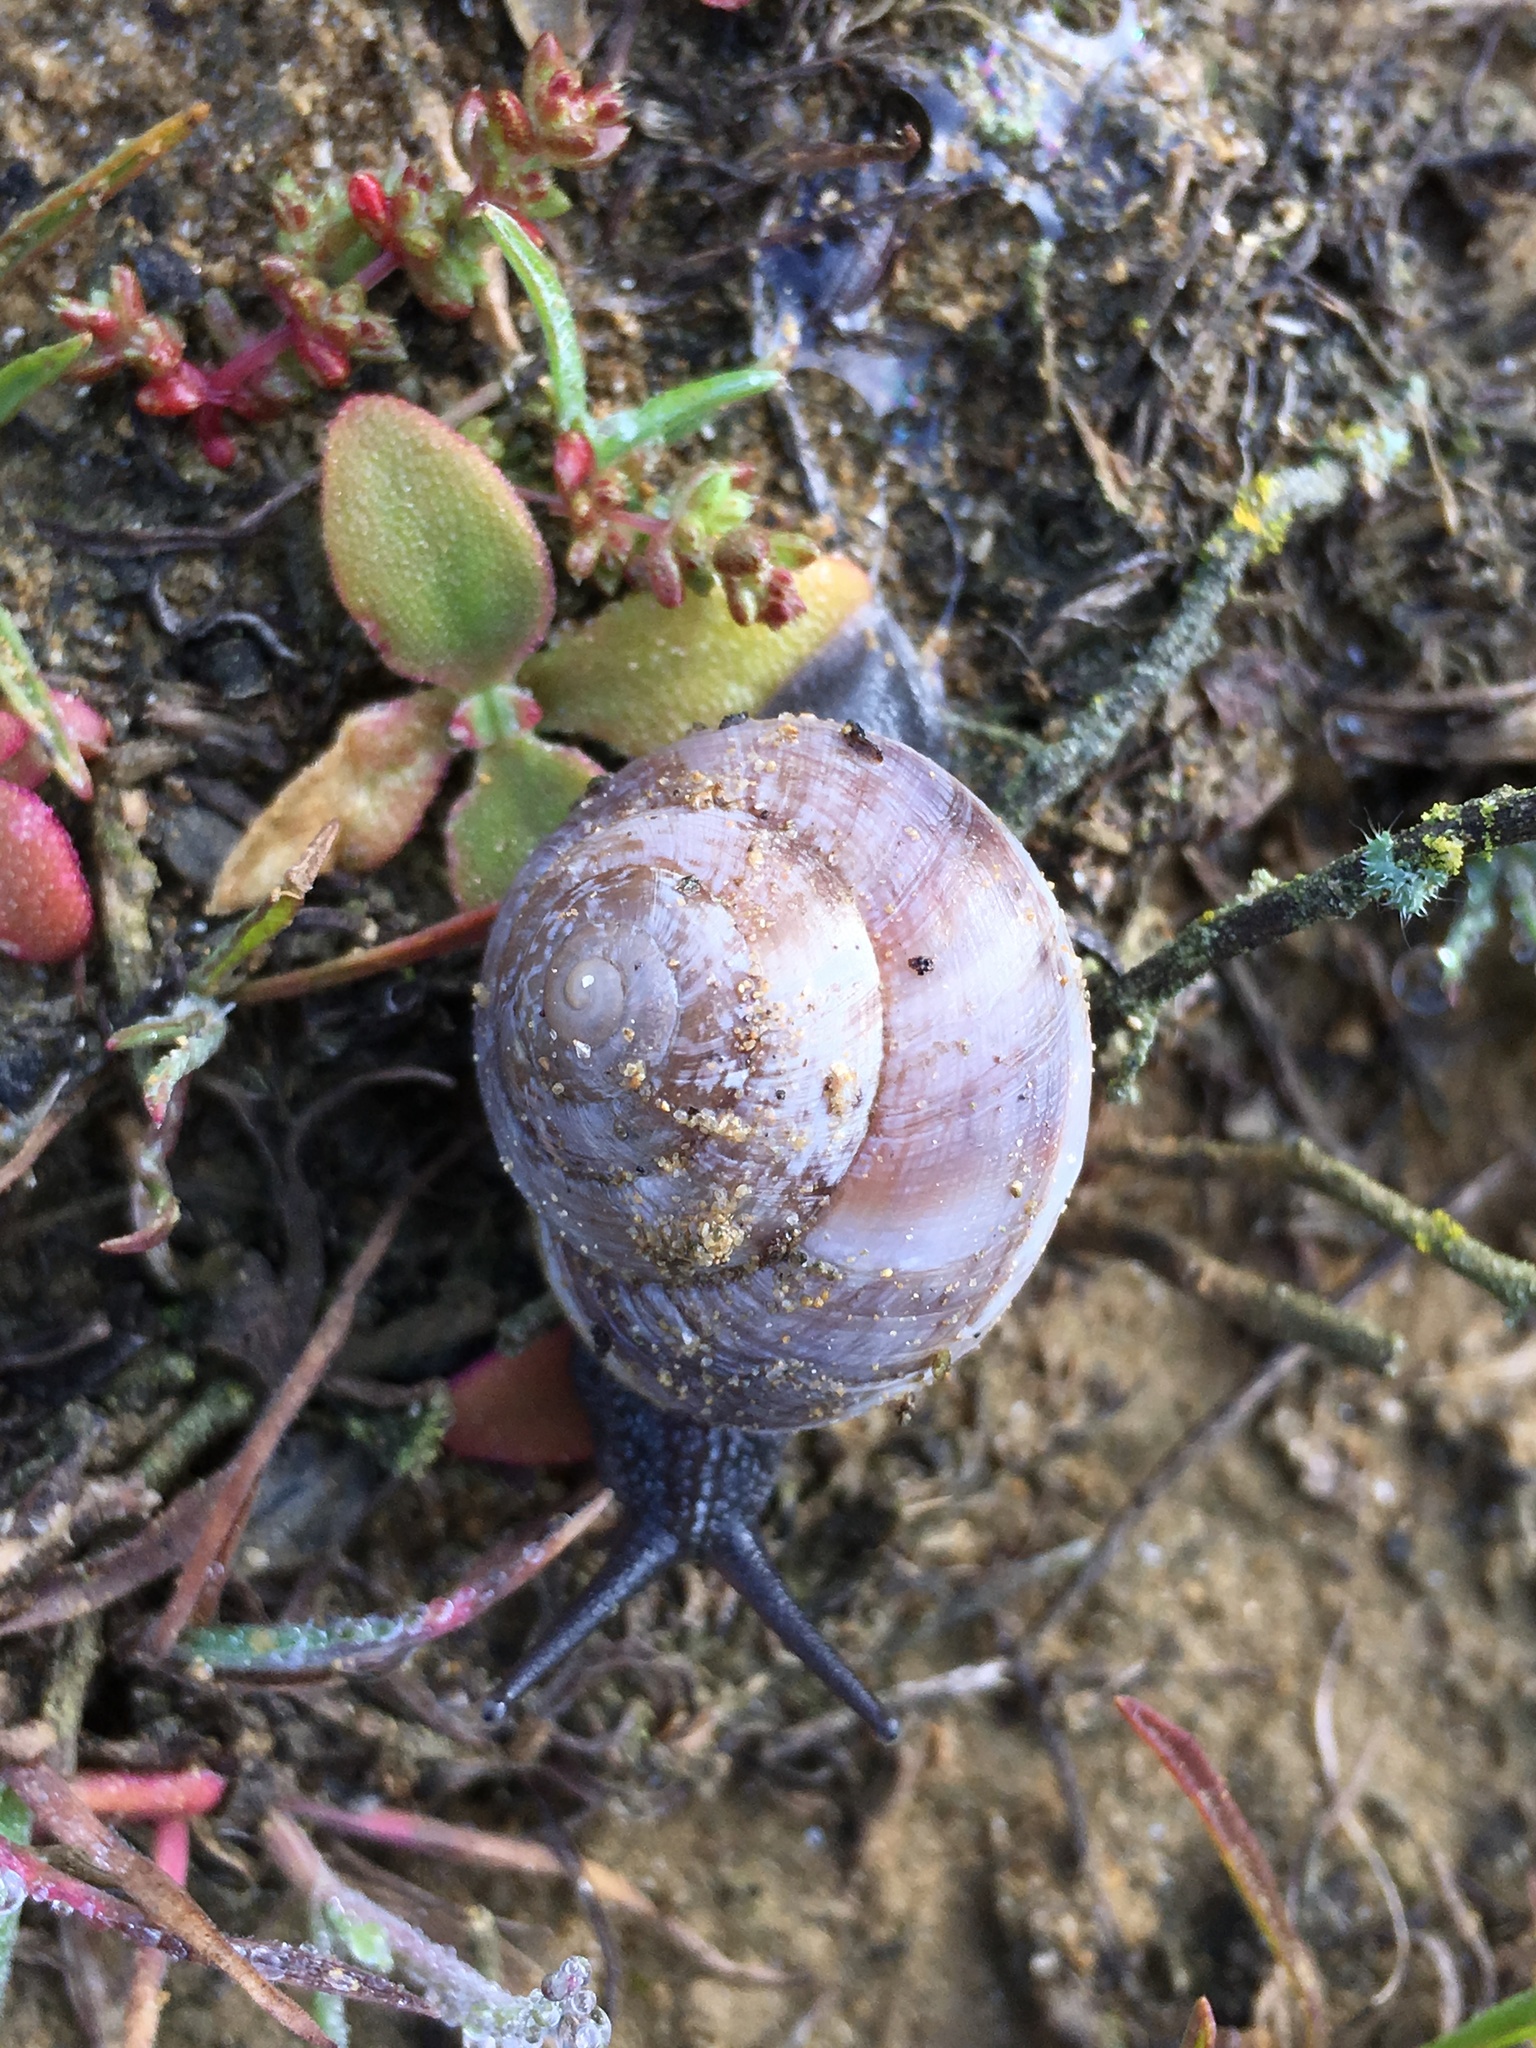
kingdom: Animalia
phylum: Mollusca
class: Gastropoda
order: Stylommatophora
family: Xanthonychidae
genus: Xerarionta
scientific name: Xerarionta tryoni
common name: Bicolor cactus snail
